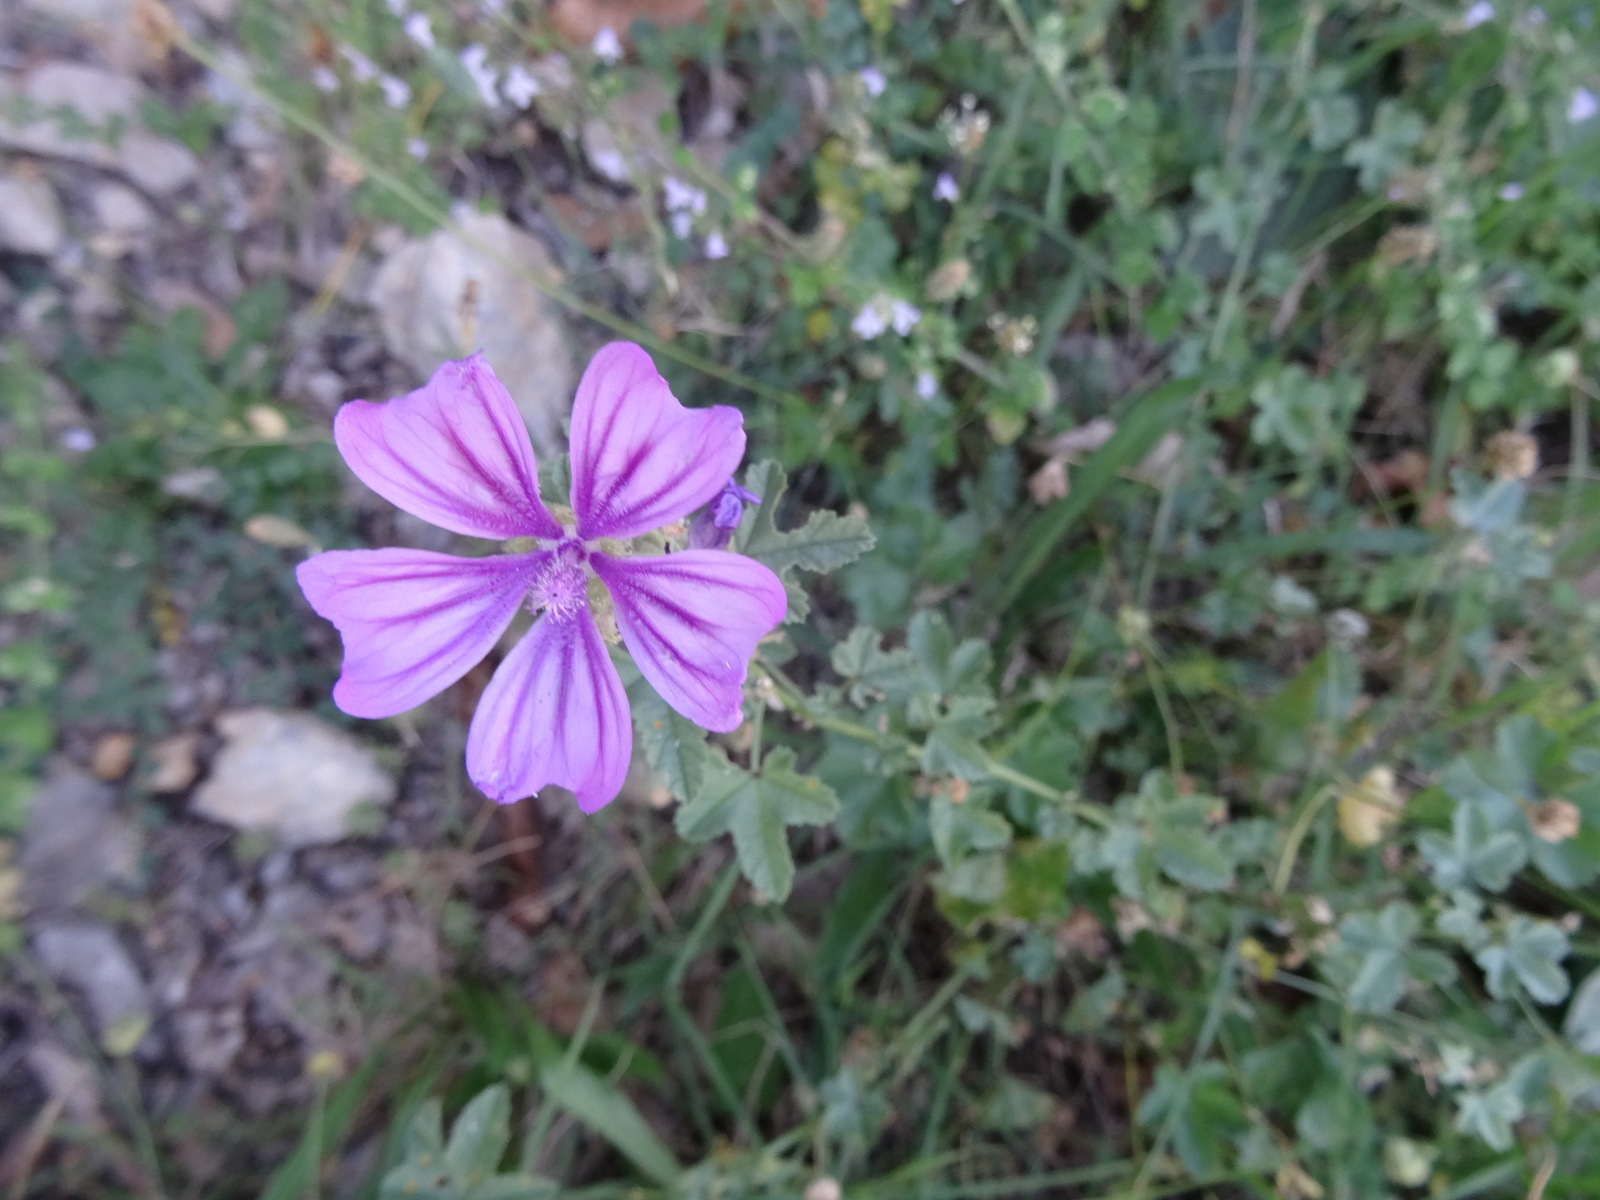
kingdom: Plantae
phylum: Tracheophyta
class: Magnoliopsida
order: Malvales
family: Malvaceae
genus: Malva
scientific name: Malva sylvestris
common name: Common mallow
